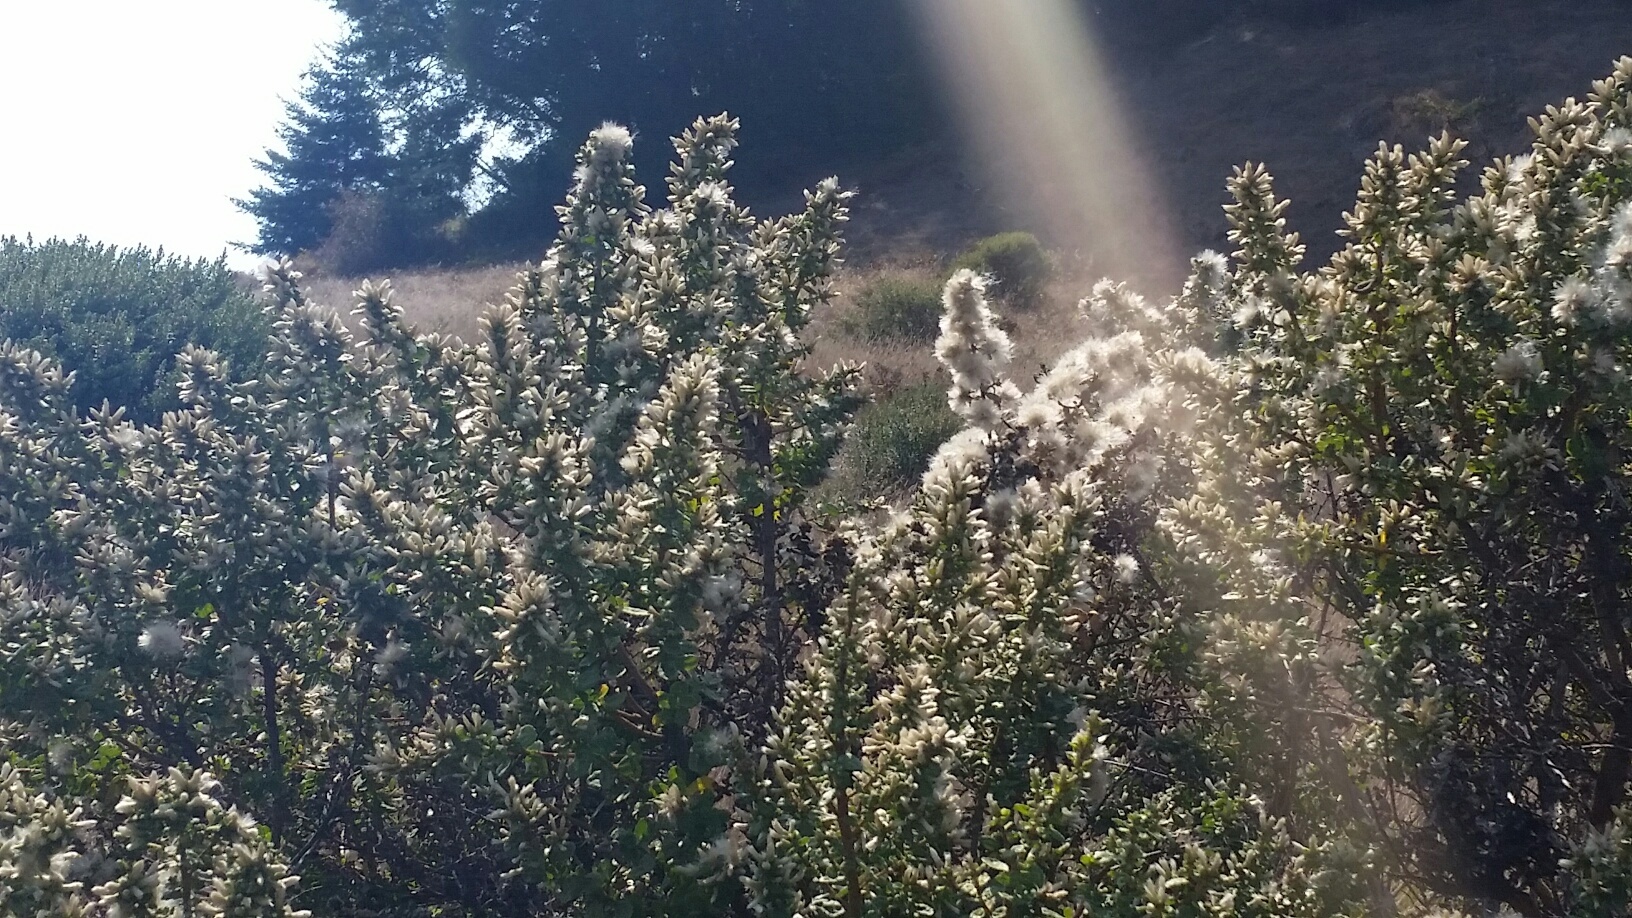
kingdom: Plantae
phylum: Tracheophyta
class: Magnoliopsida
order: Asterales
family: Asteraceae
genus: Baccharis
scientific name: Baccharis pilularis
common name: Coyotebrush
